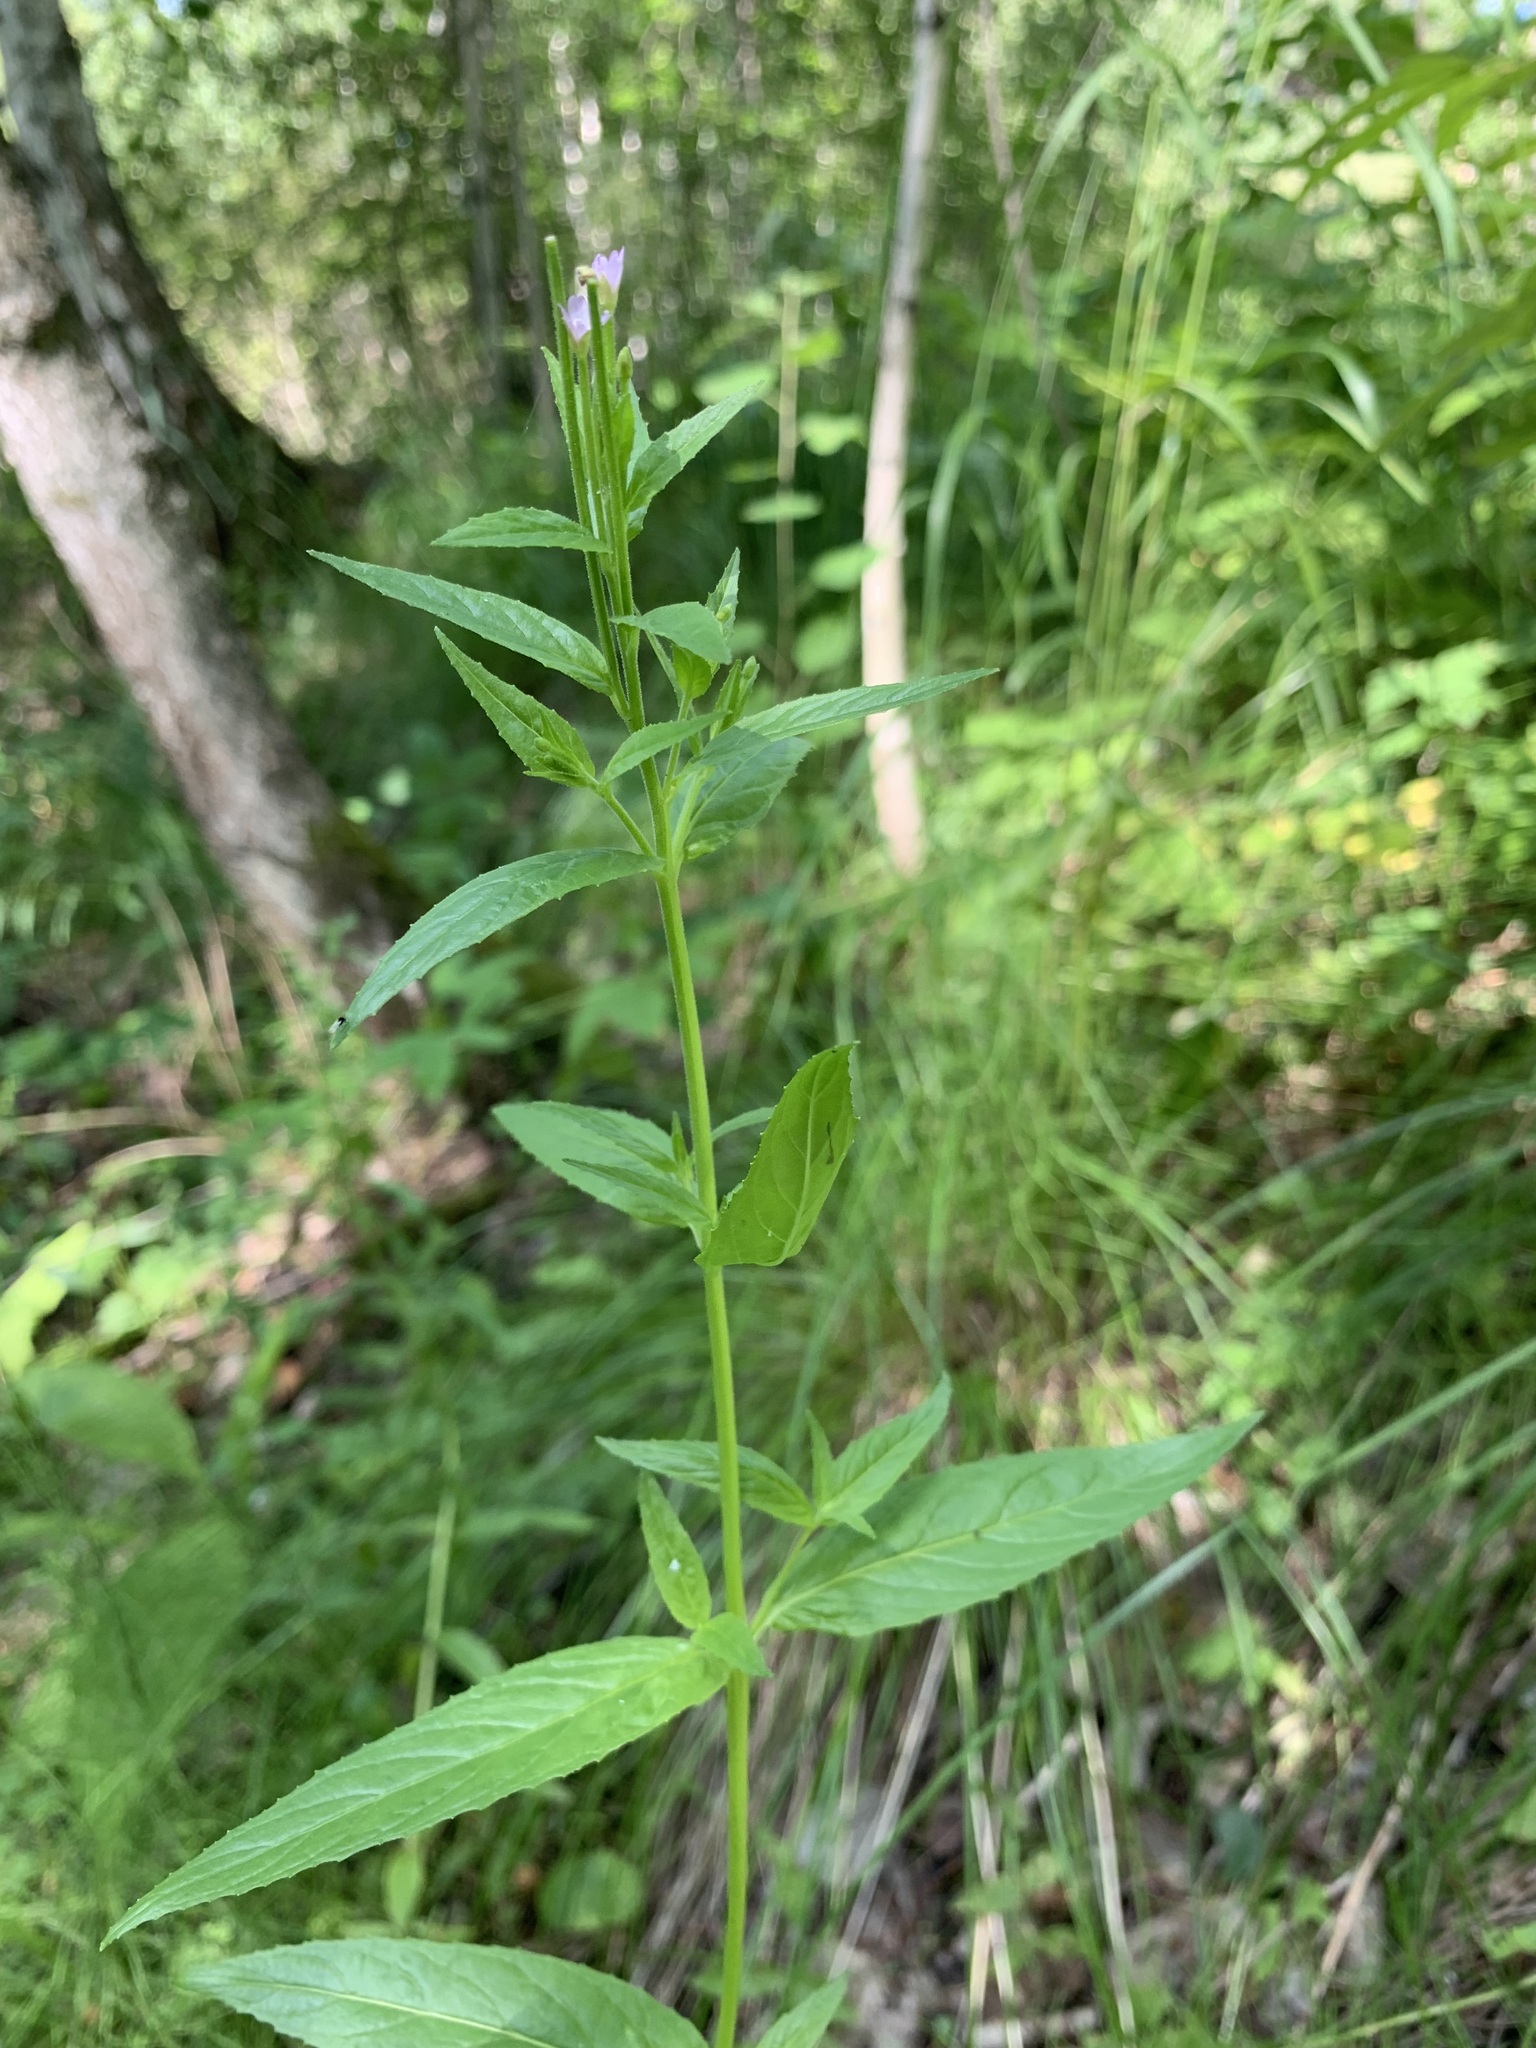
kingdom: Plantae
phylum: Tracheophyta
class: Magnoliopsida
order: Myrtales
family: Onagraceae
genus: Epilobium
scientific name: Epilobium ciliatum
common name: American willowherb
